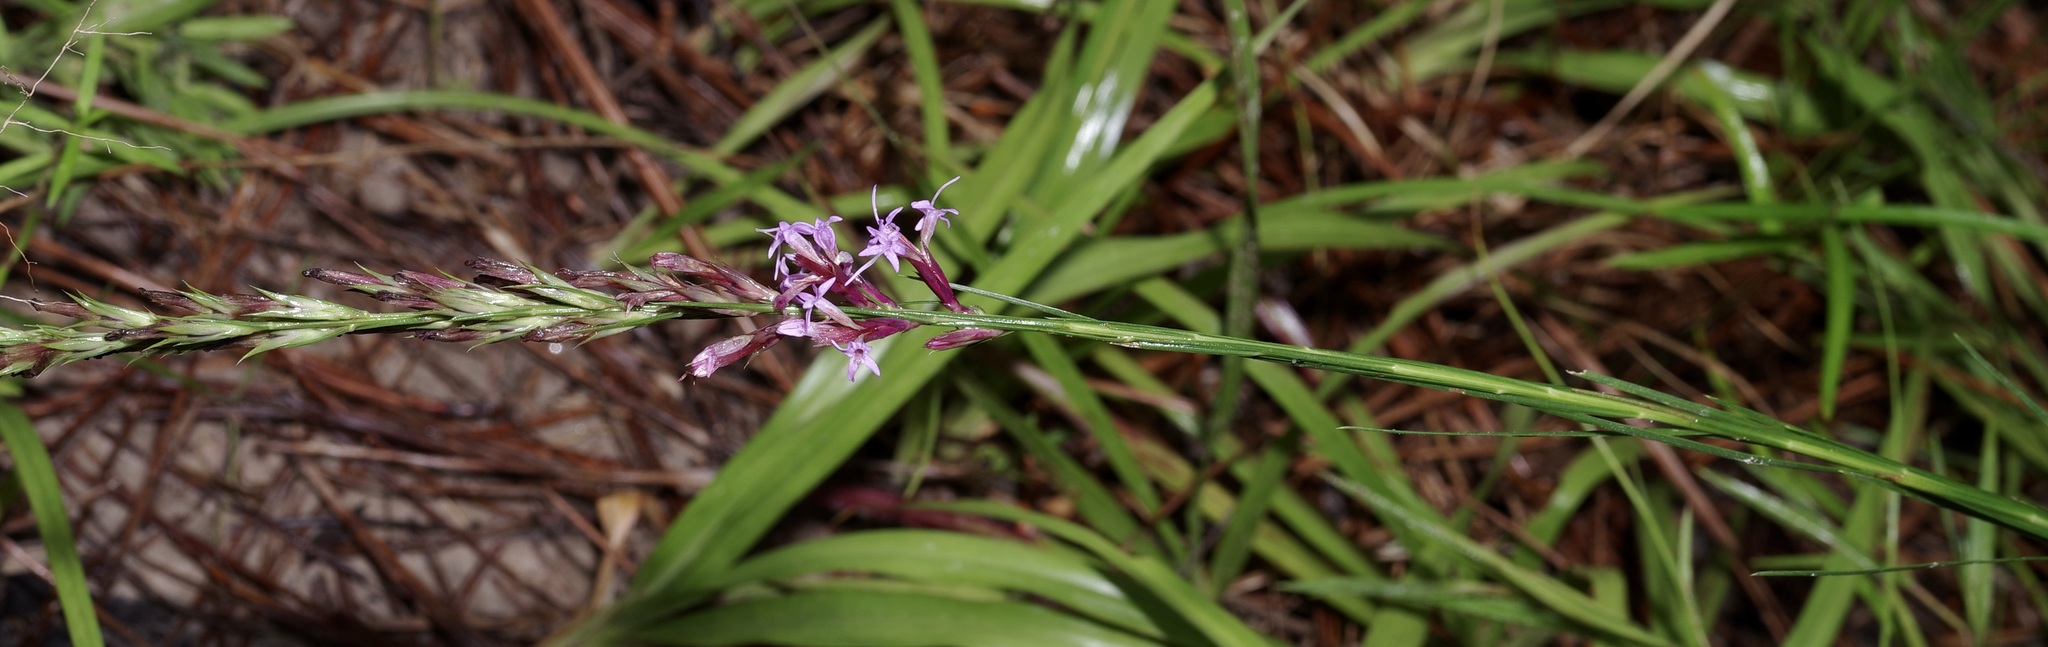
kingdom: Plantae
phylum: Tracheophyta
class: Magnoliopsida
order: Asterales
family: Asteraceae
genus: Liatris
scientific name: Liatris acidota
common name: Gulf coast gayfeather
